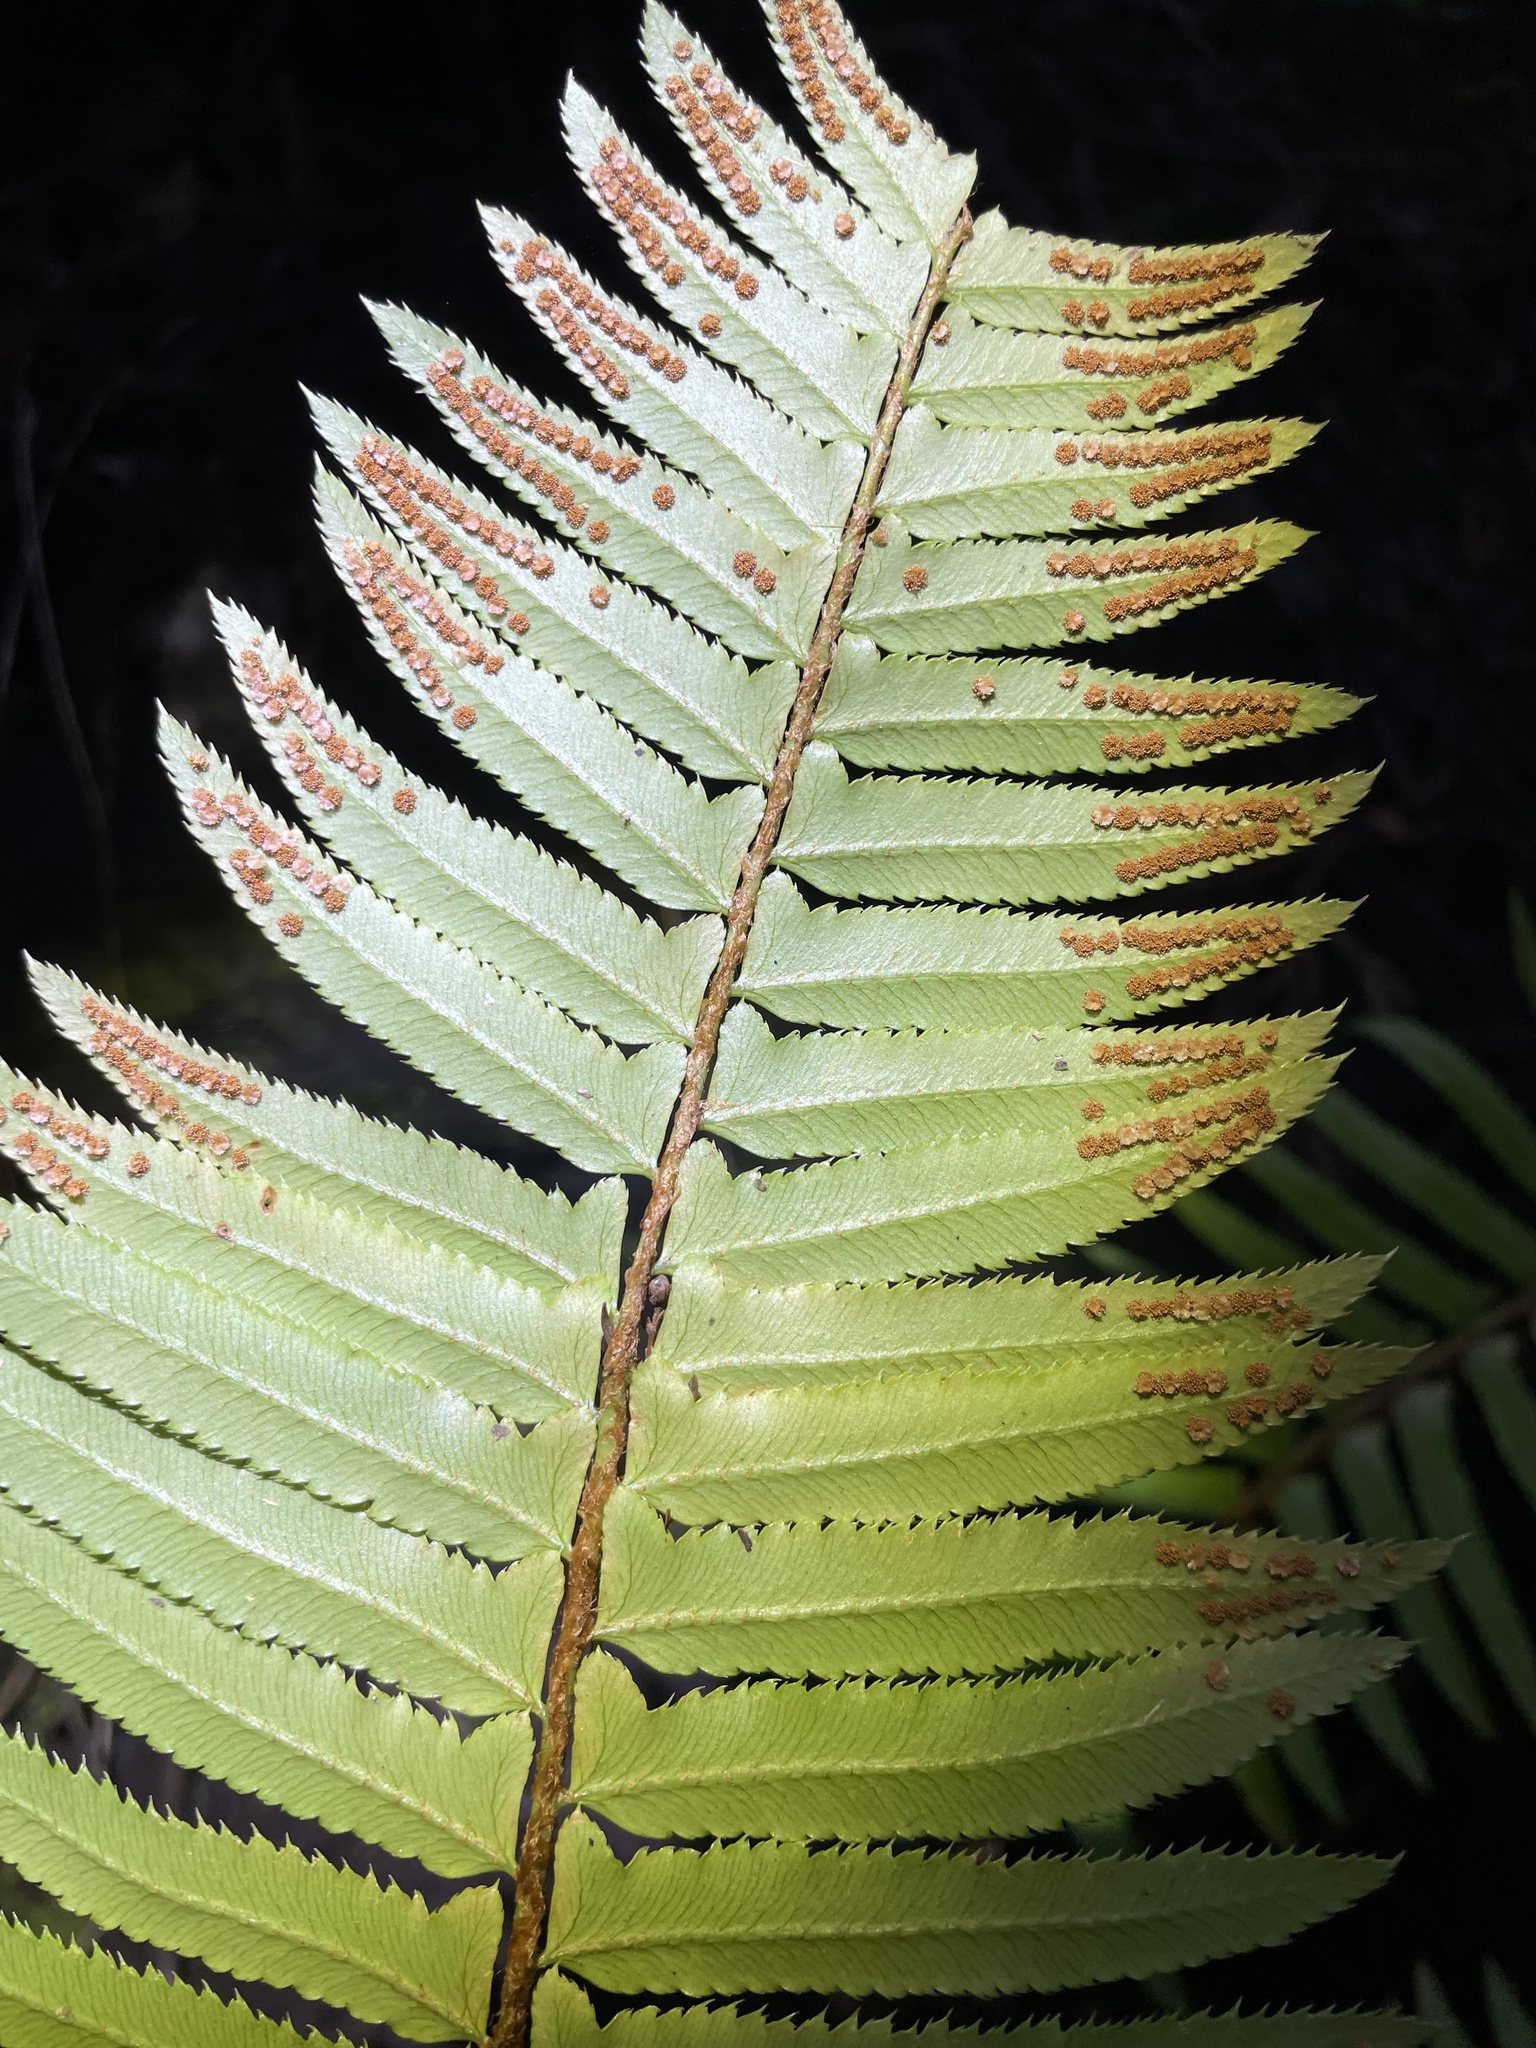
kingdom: Plantae
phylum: Tracheophyta
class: Polypodiopsida
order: Polypodiales
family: Dryopteridaceae
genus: Polystichum
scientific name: Polystichum munitum
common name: Western sword-fern
